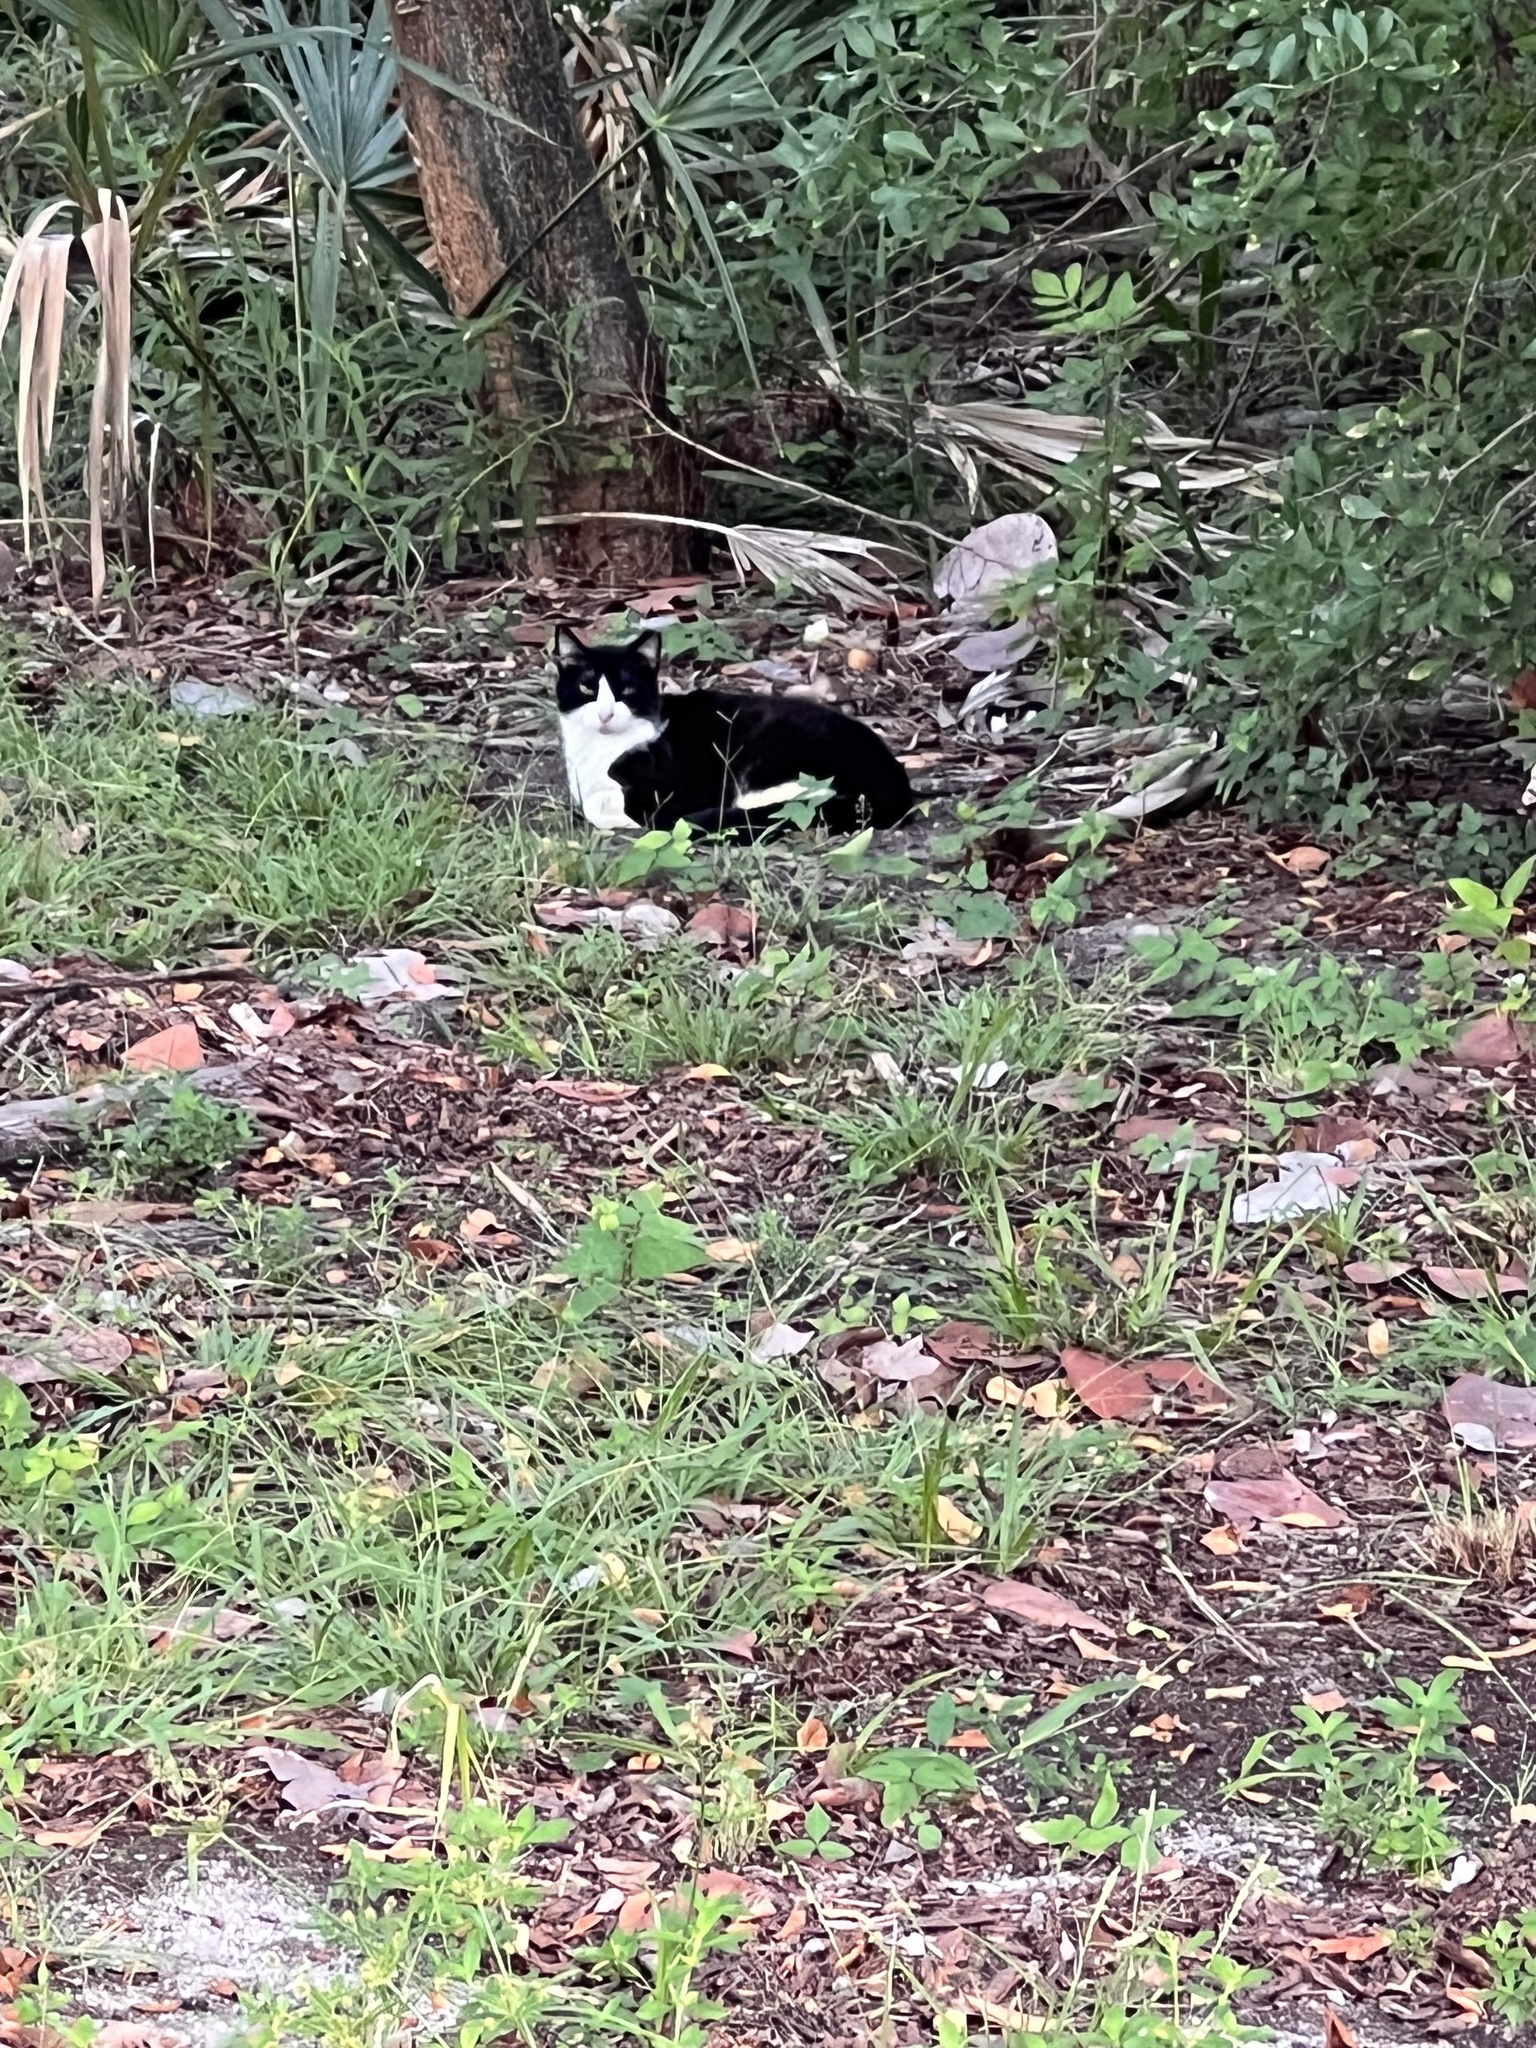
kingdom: Animalia
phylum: Chordata
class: Mammalia
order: Carnivora
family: Felidae
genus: Felis
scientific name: Felis catus
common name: Domestic cat
